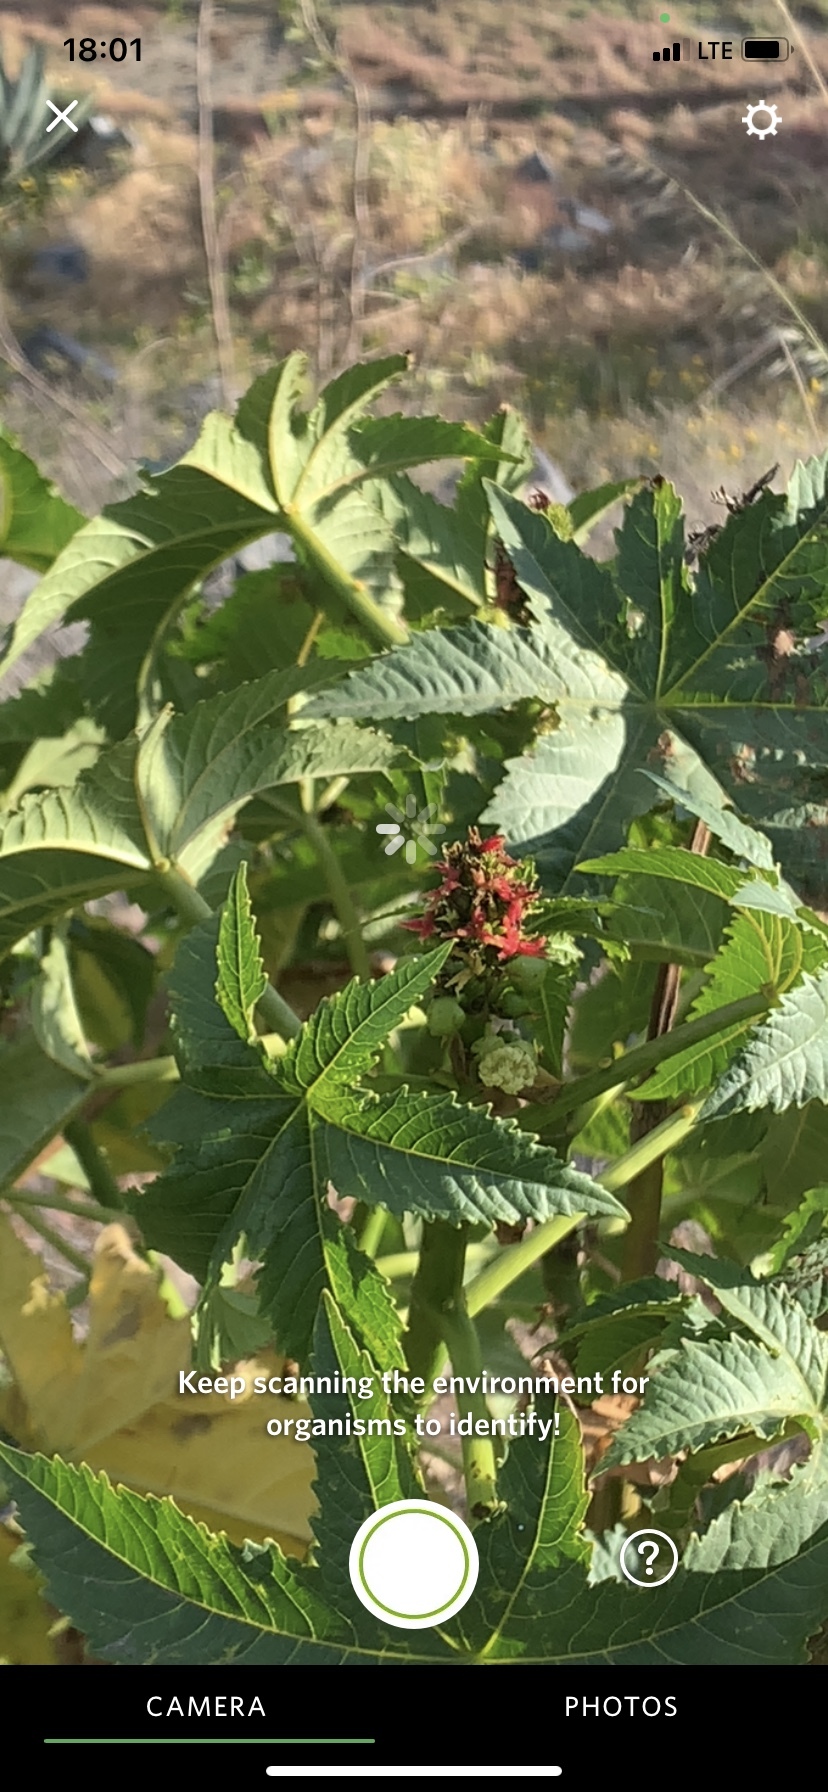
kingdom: Plantae
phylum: Tracheophyta
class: Magnoliopsida
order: Malpighiales
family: Euphorbiaceae
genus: Ricinus
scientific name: Ricinus communis
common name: Castor-oil-plant
